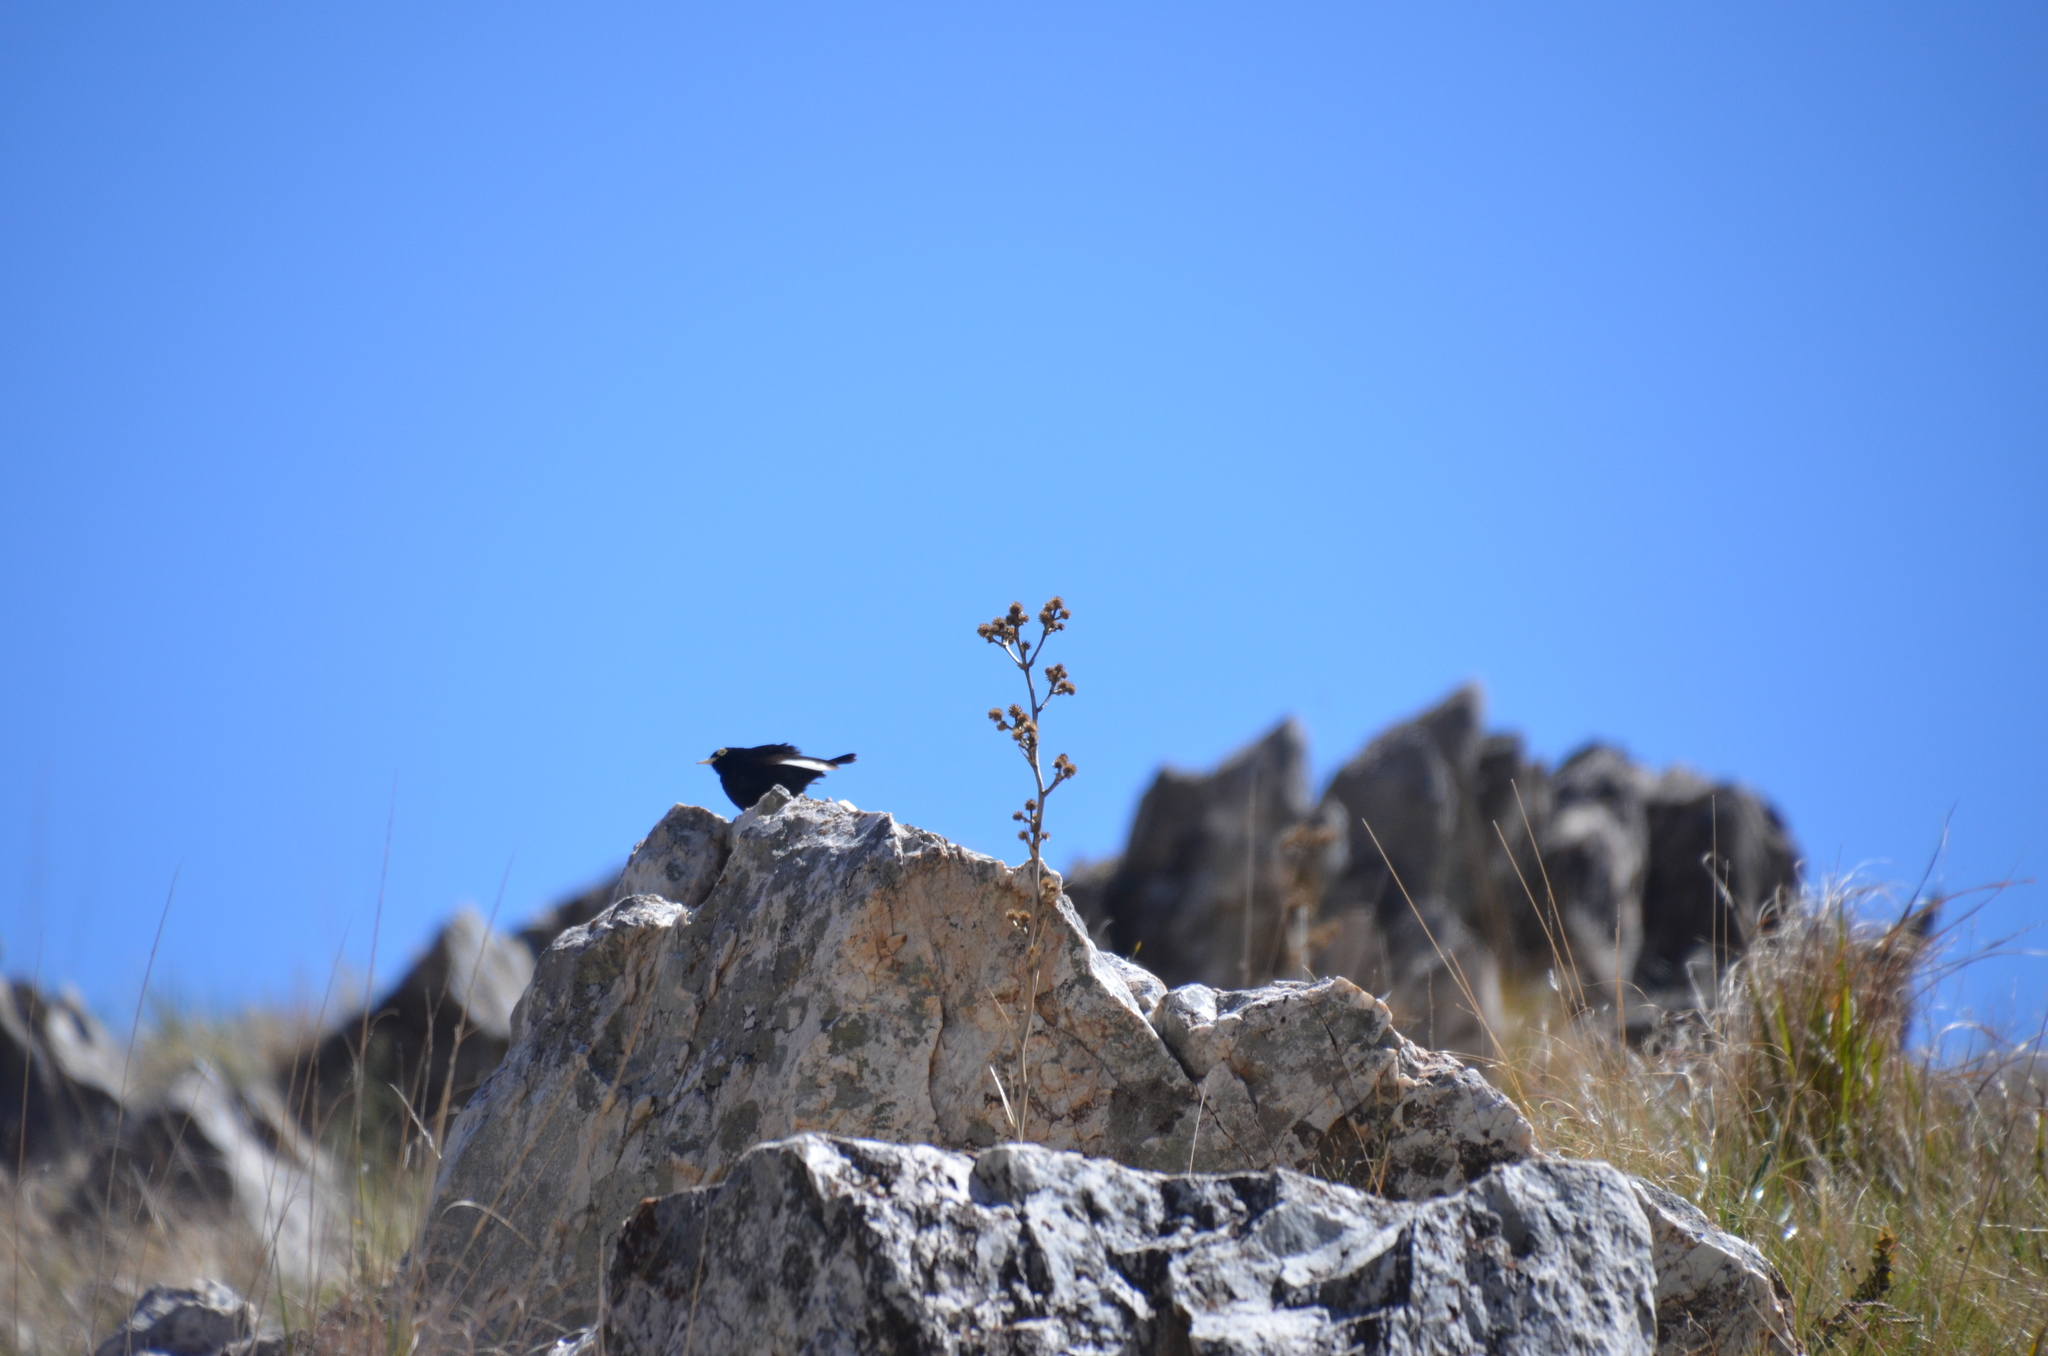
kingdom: Animalia
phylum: Chordata
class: Aves
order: Passeriformes
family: Tyrannidae
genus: Hymenops
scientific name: Hymenops perspicillatus
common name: Spectacled tyrant
